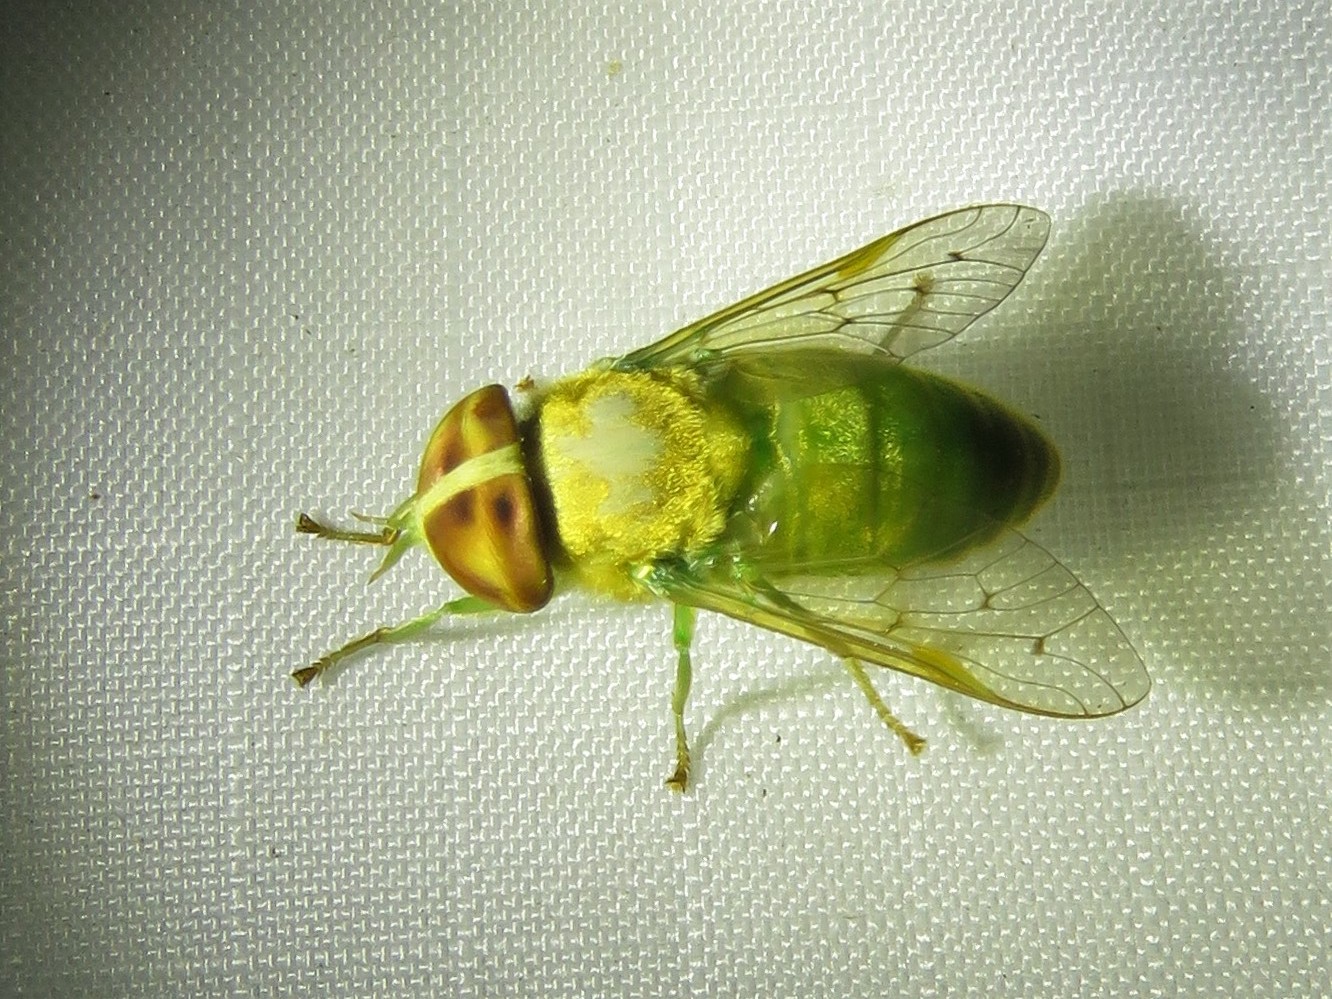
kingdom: Animalia
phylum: Arthropoda
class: Insecta
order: Diptera
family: Tabanidae
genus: Chlorotabanus
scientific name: Chlorotabanus crepuscularis
